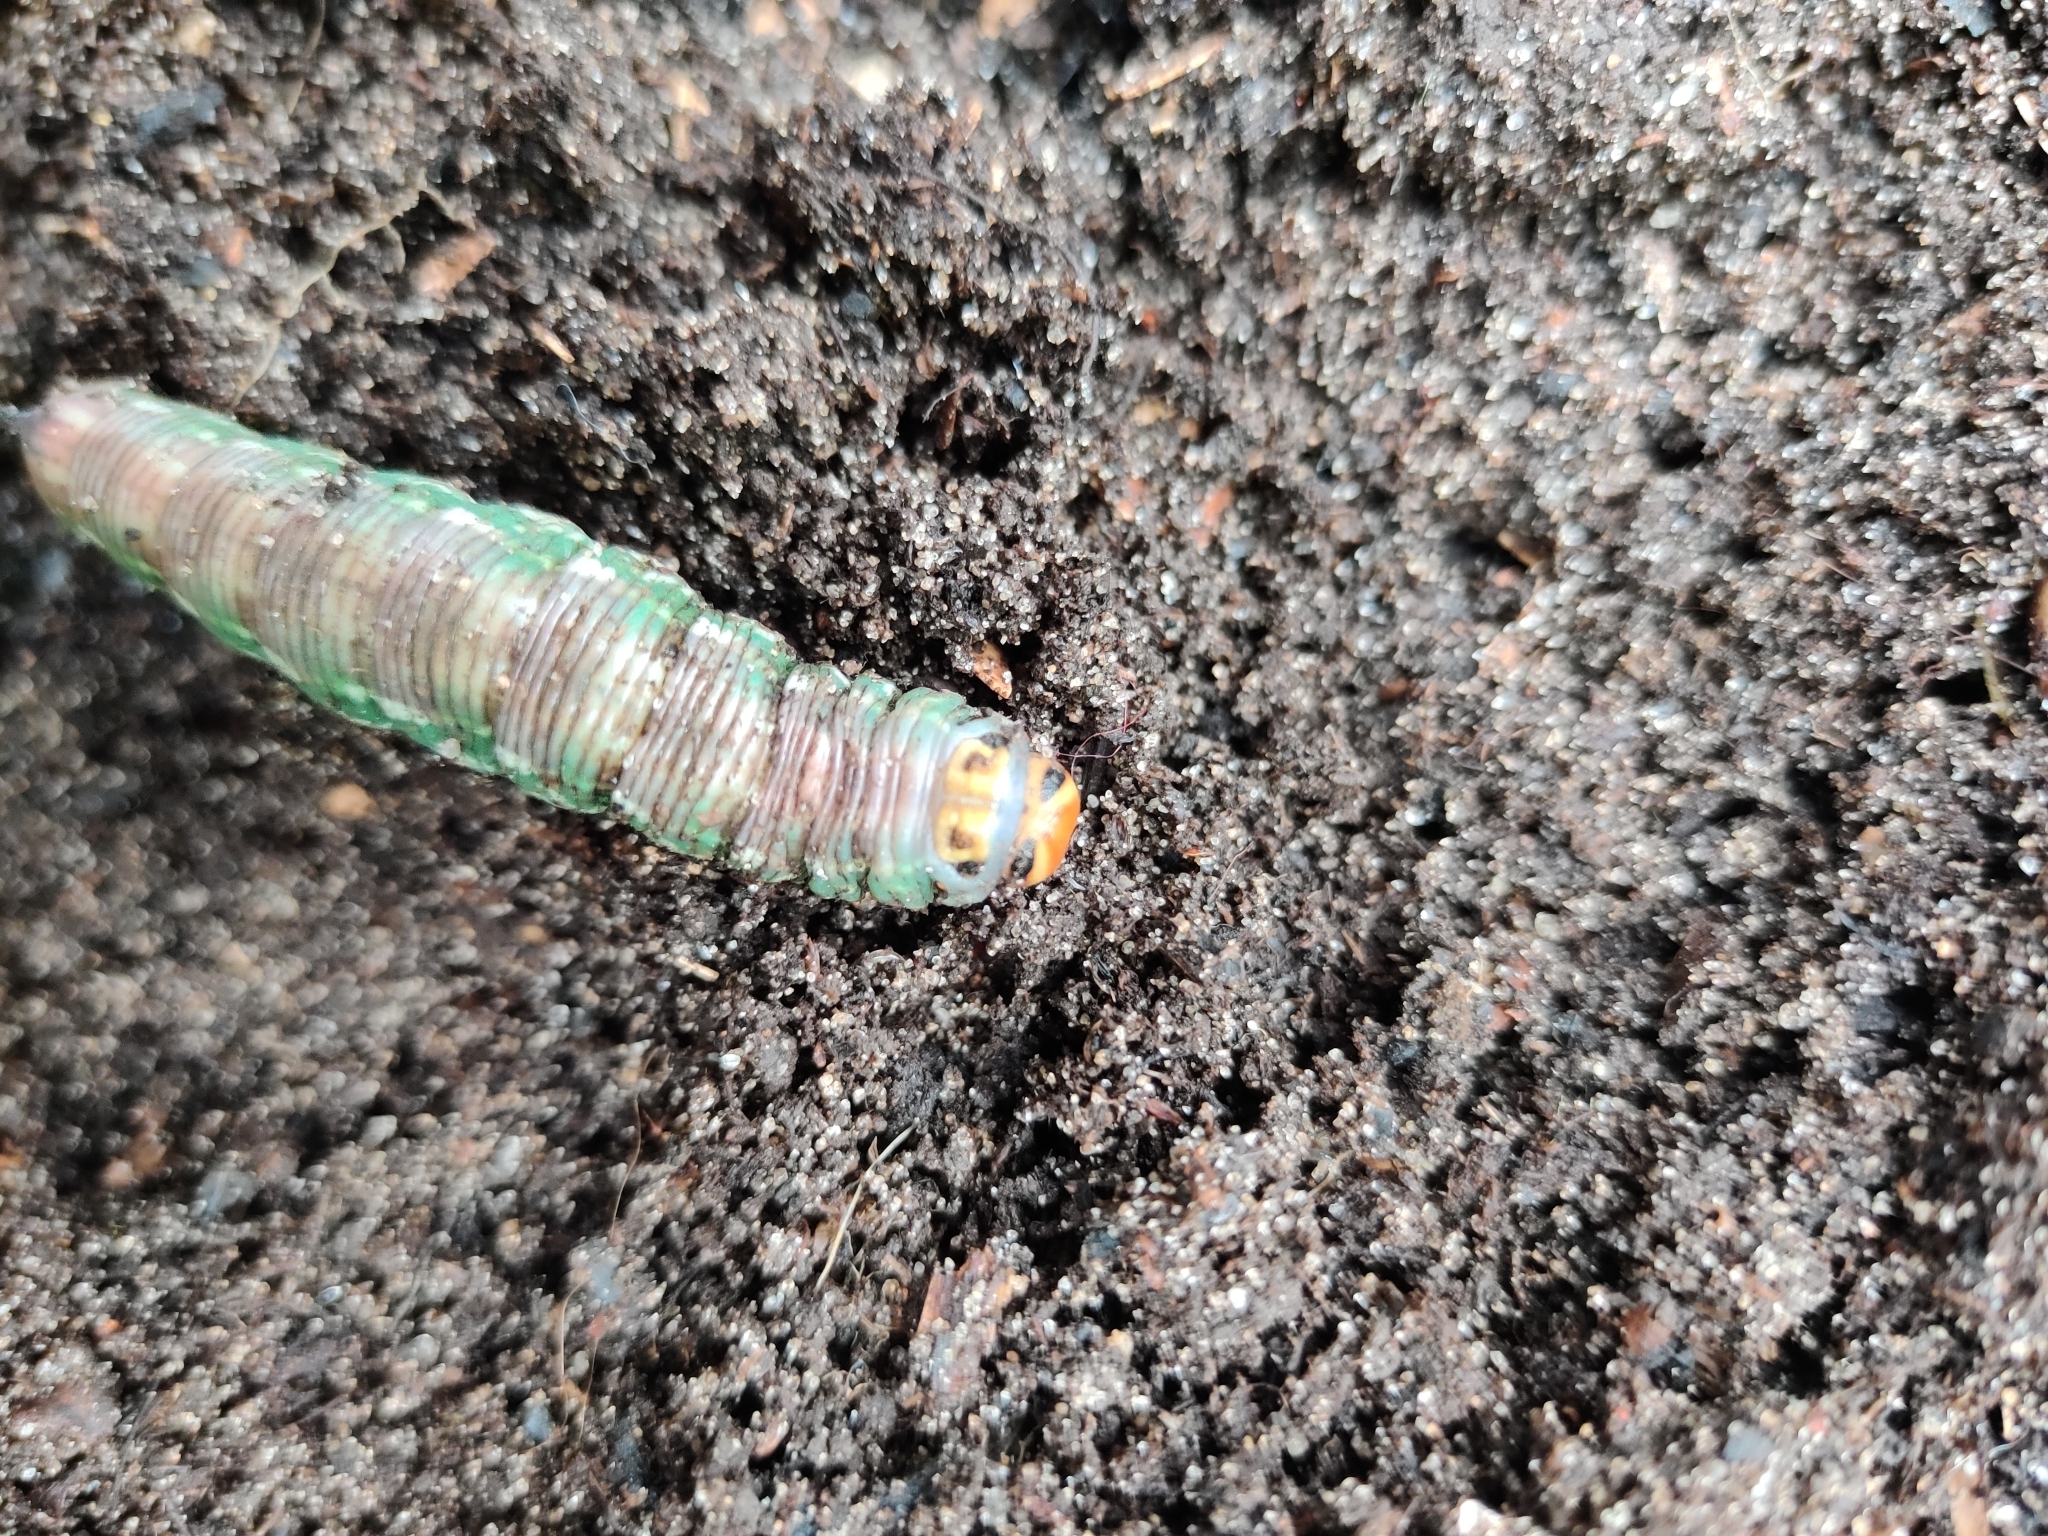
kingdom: Animalia
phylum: Arthropoda
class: Insecta
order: Lepidoptera
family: Sphingidae
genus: Sphinx
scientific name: Sphinx pinastri
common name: Pine hawk-moth
